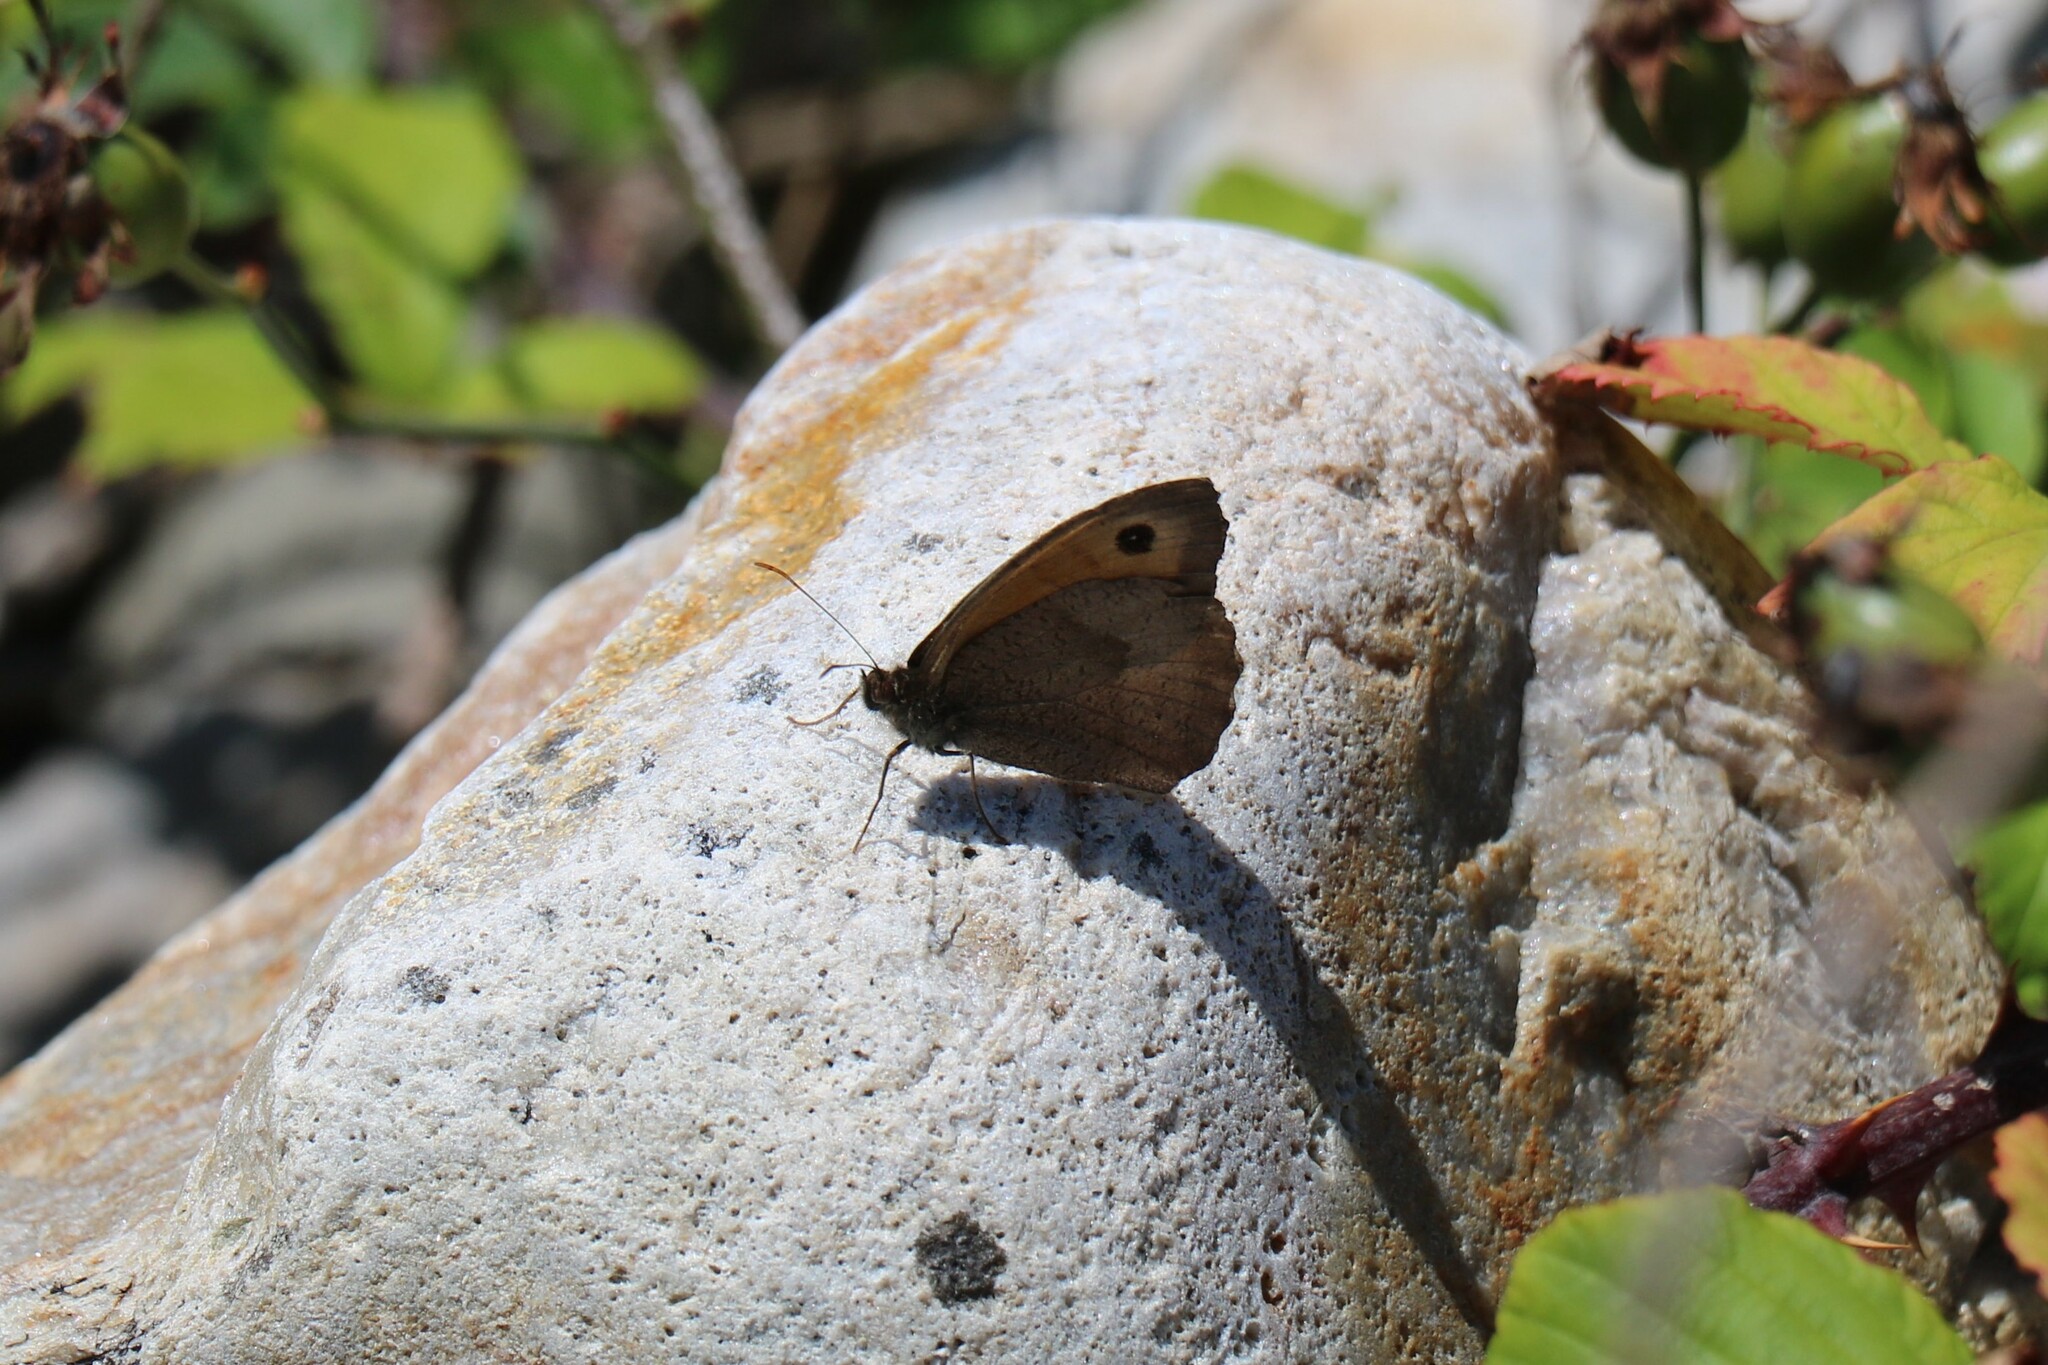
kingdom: Animalia
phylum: Arthropoda
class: Insecta
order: Lepidoptera
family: Nymphalidae
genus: Maniola
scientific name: Maniola jurtina
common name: Meadow brown
